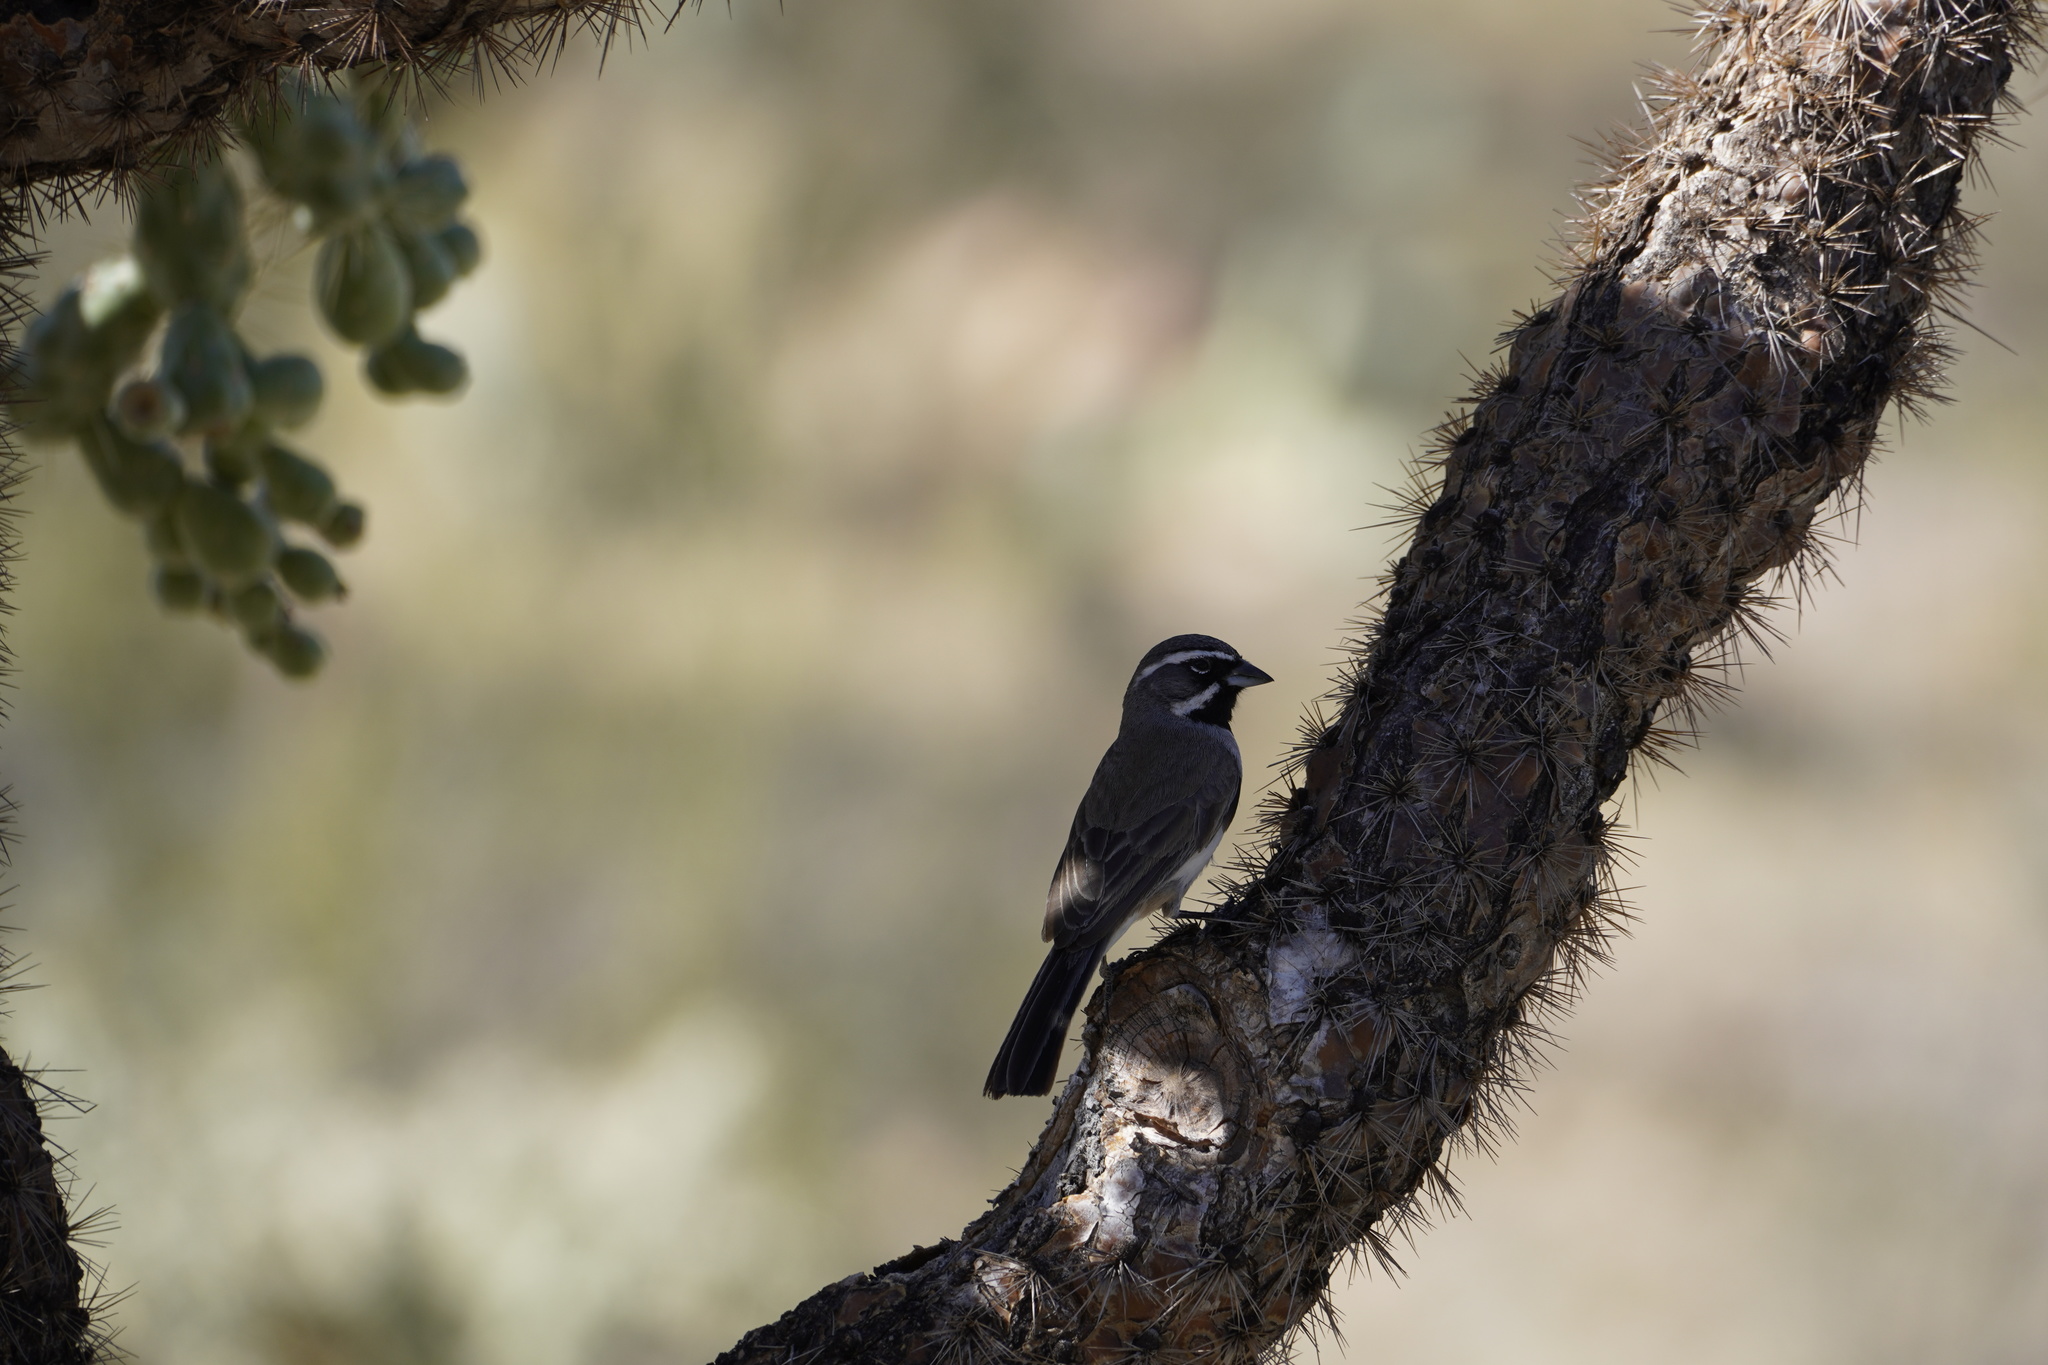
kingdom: Animalia
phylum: Chordata
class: Aves
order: Passeriformes
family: Passerellidae
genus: Amphispiza
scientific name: Amphispiza bilineata
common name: Black-throated sparrow
